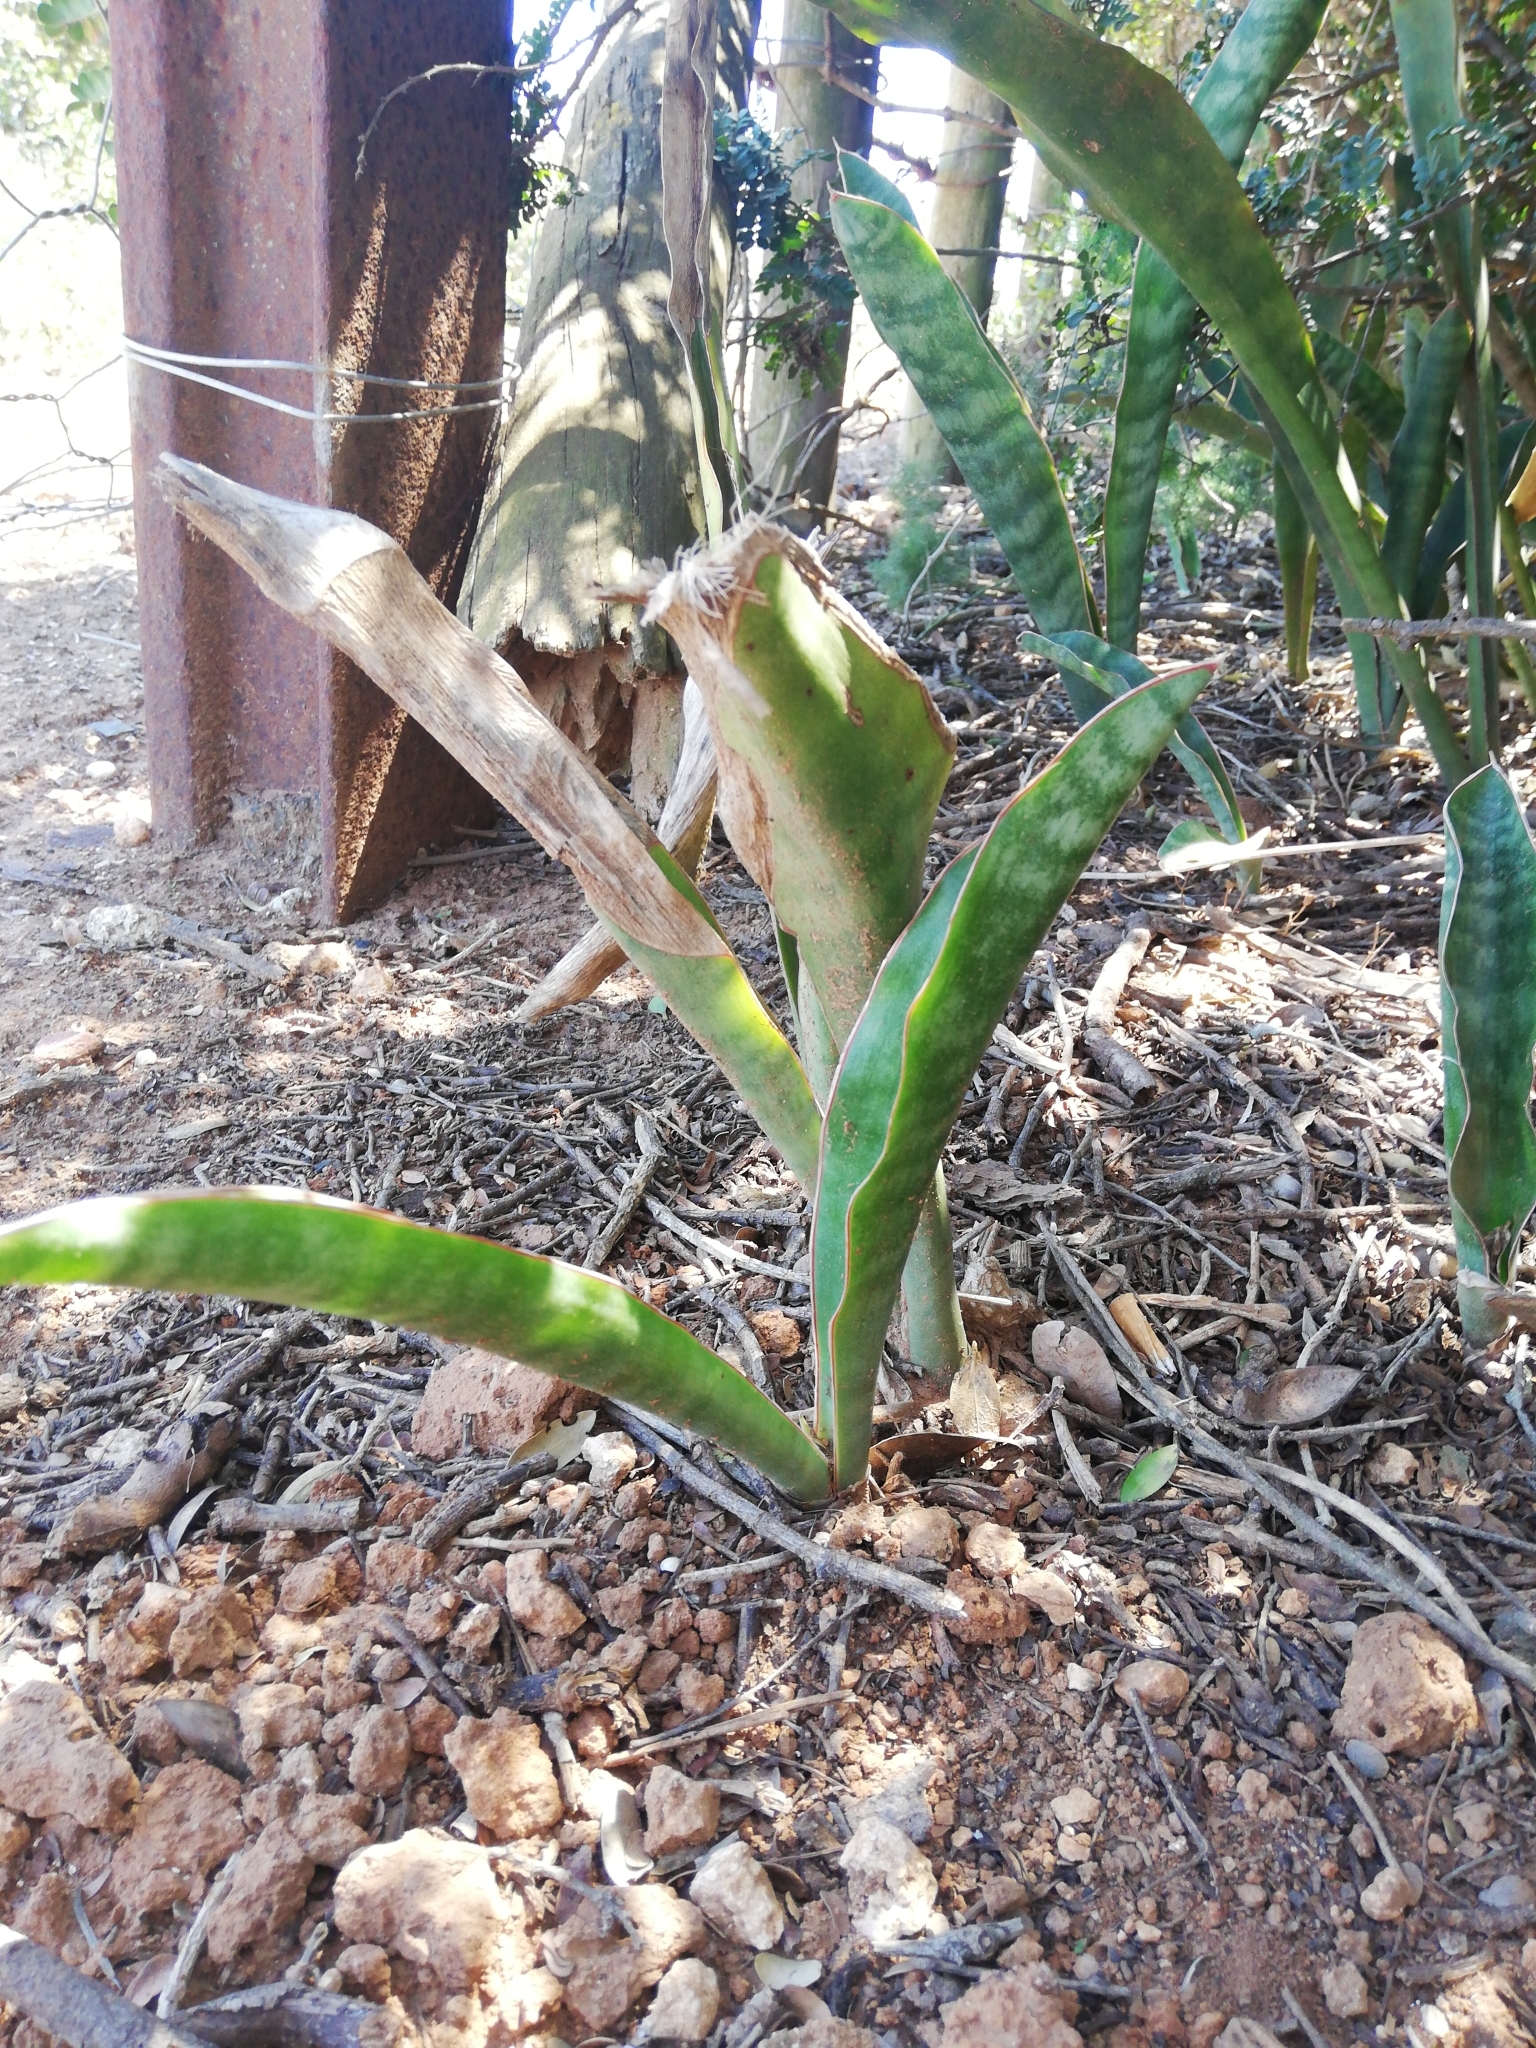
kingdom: Plantae
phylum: Tracheophyta
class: Liliopsida
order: Asparagales
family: Asparagaceae
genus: Dracaena
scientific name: Dracaena hyacinthoides
